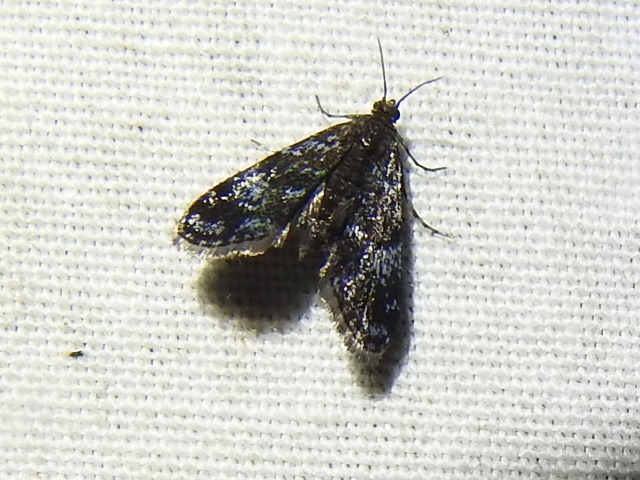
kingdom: Animalia
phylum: Arthropoda
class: Insecta
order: Lepidoptera
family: Crambidae
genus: Elophila
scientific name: Elophila tinealis
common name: Black duckweed moth
